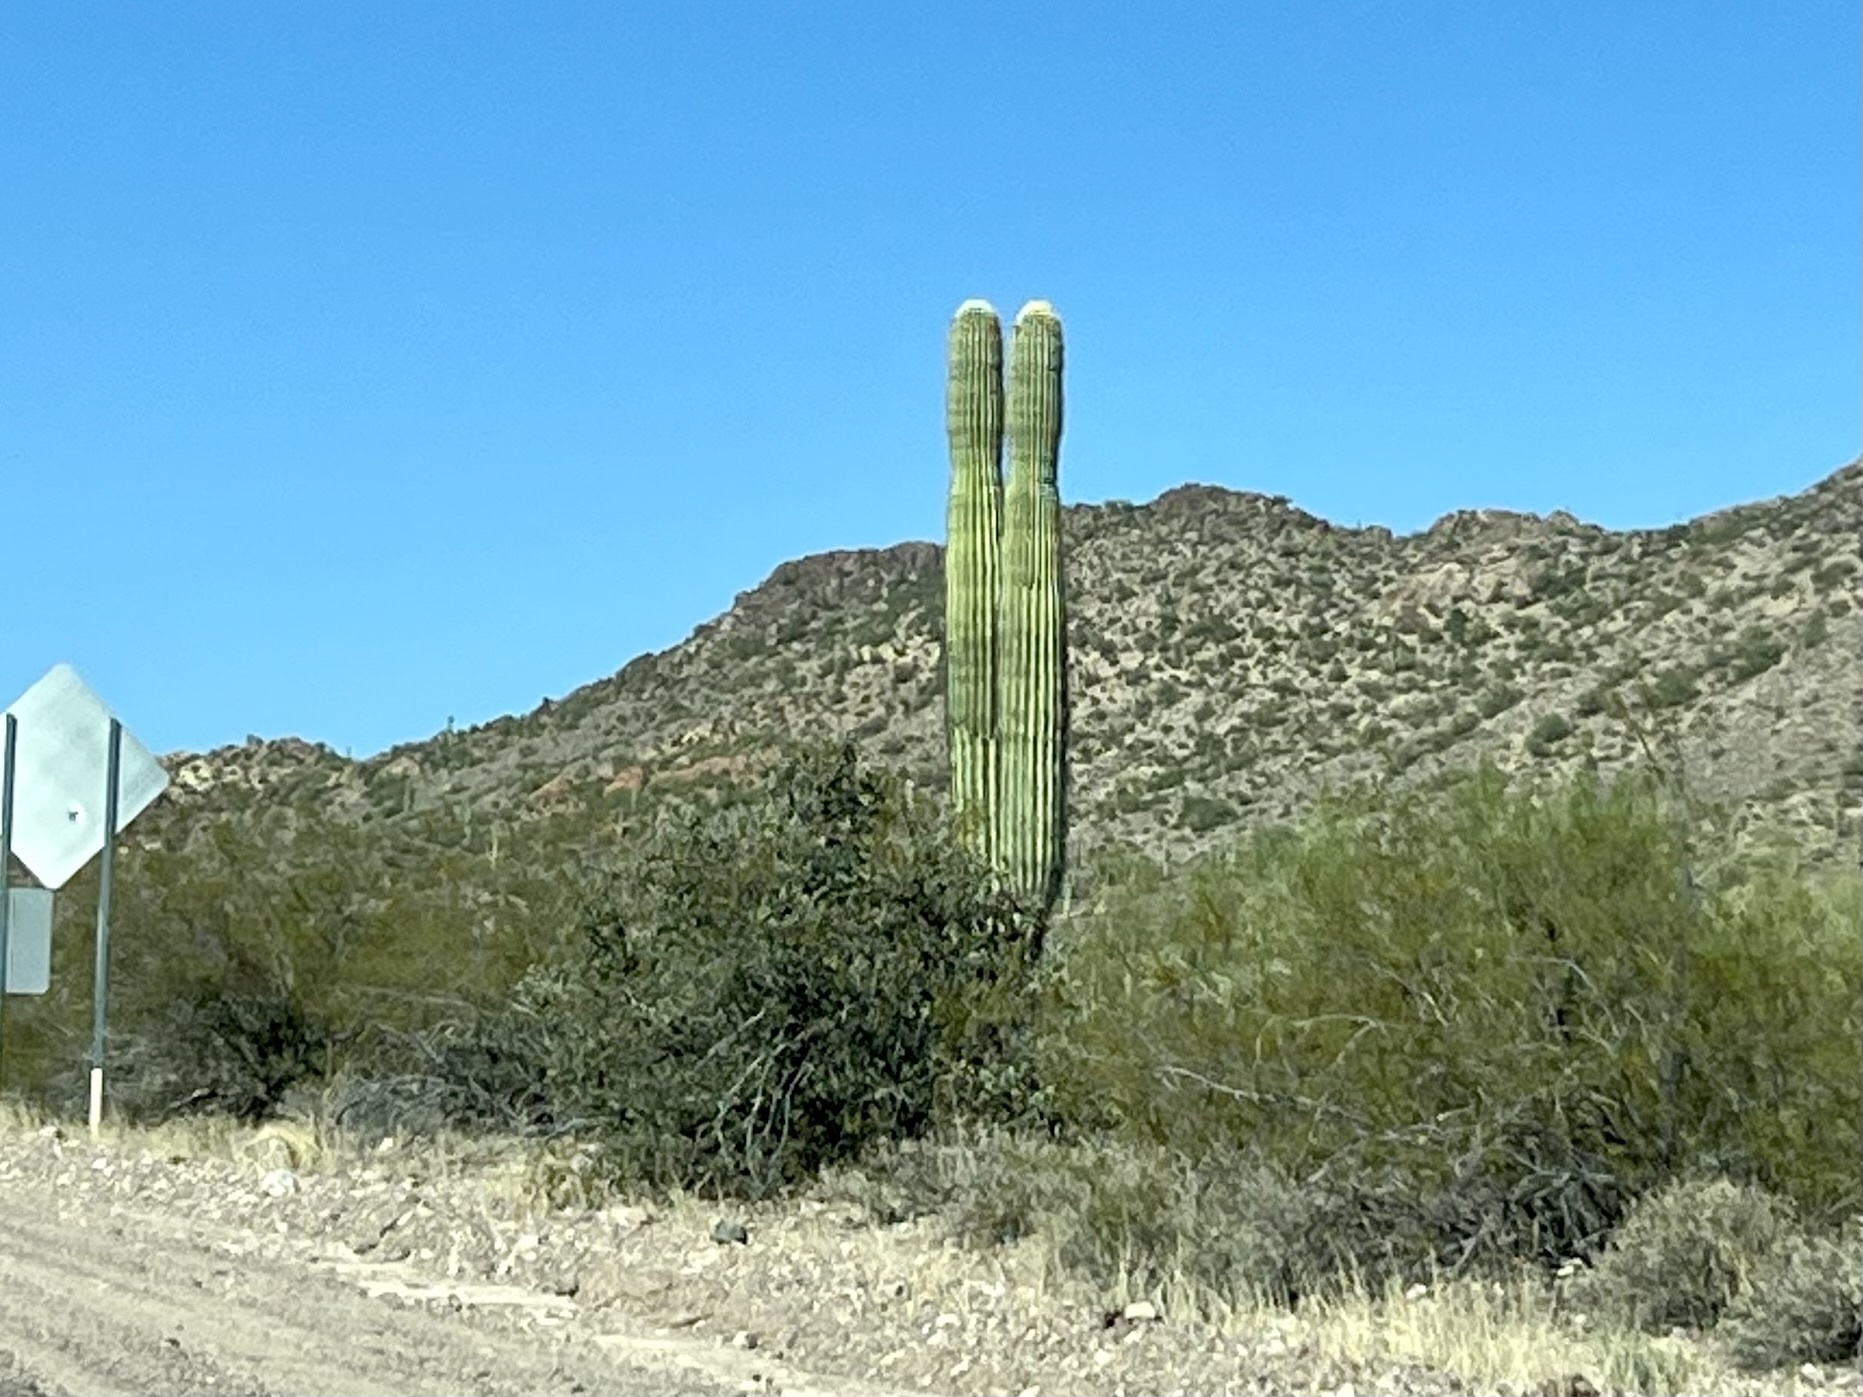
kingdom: Plantae
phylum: Tracheophyta
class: Magnoliopsida
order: Caryophyllales
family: Cactaceae
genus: Carnegiea
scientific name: Carnegiea gigantea
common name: Saguaro
